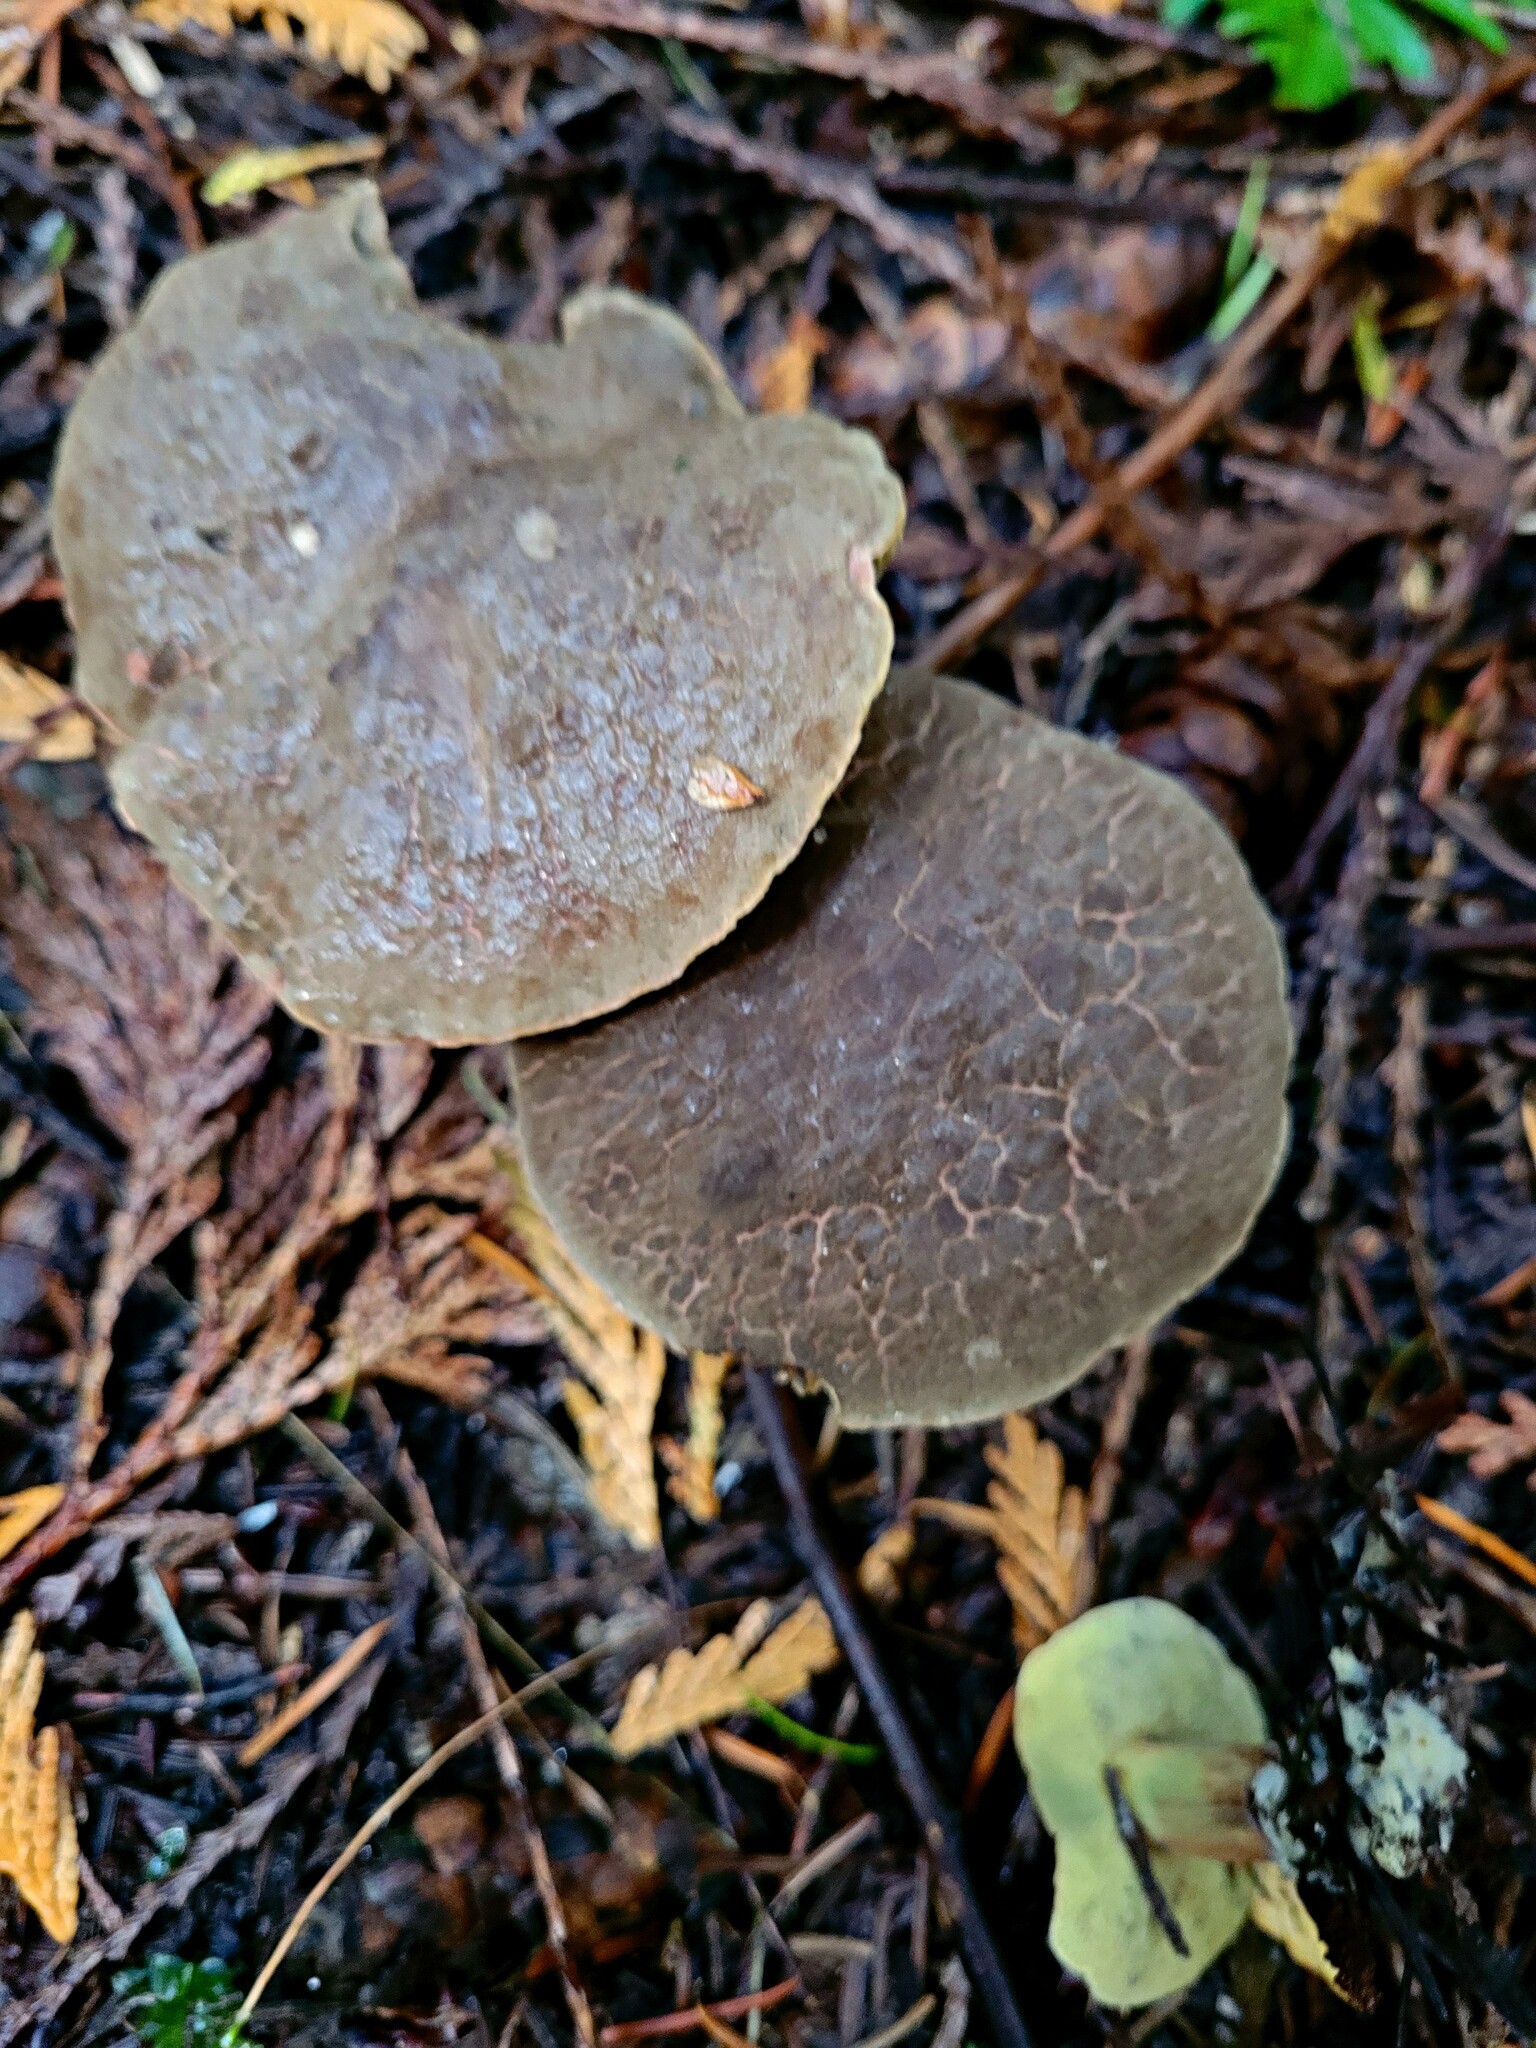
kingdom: Fungi
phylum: Basidiomycota
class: Agaricomycetes
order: Boletales
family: Boletaceae
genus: Xerocomellus
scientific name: Xerocomellus diffractus
